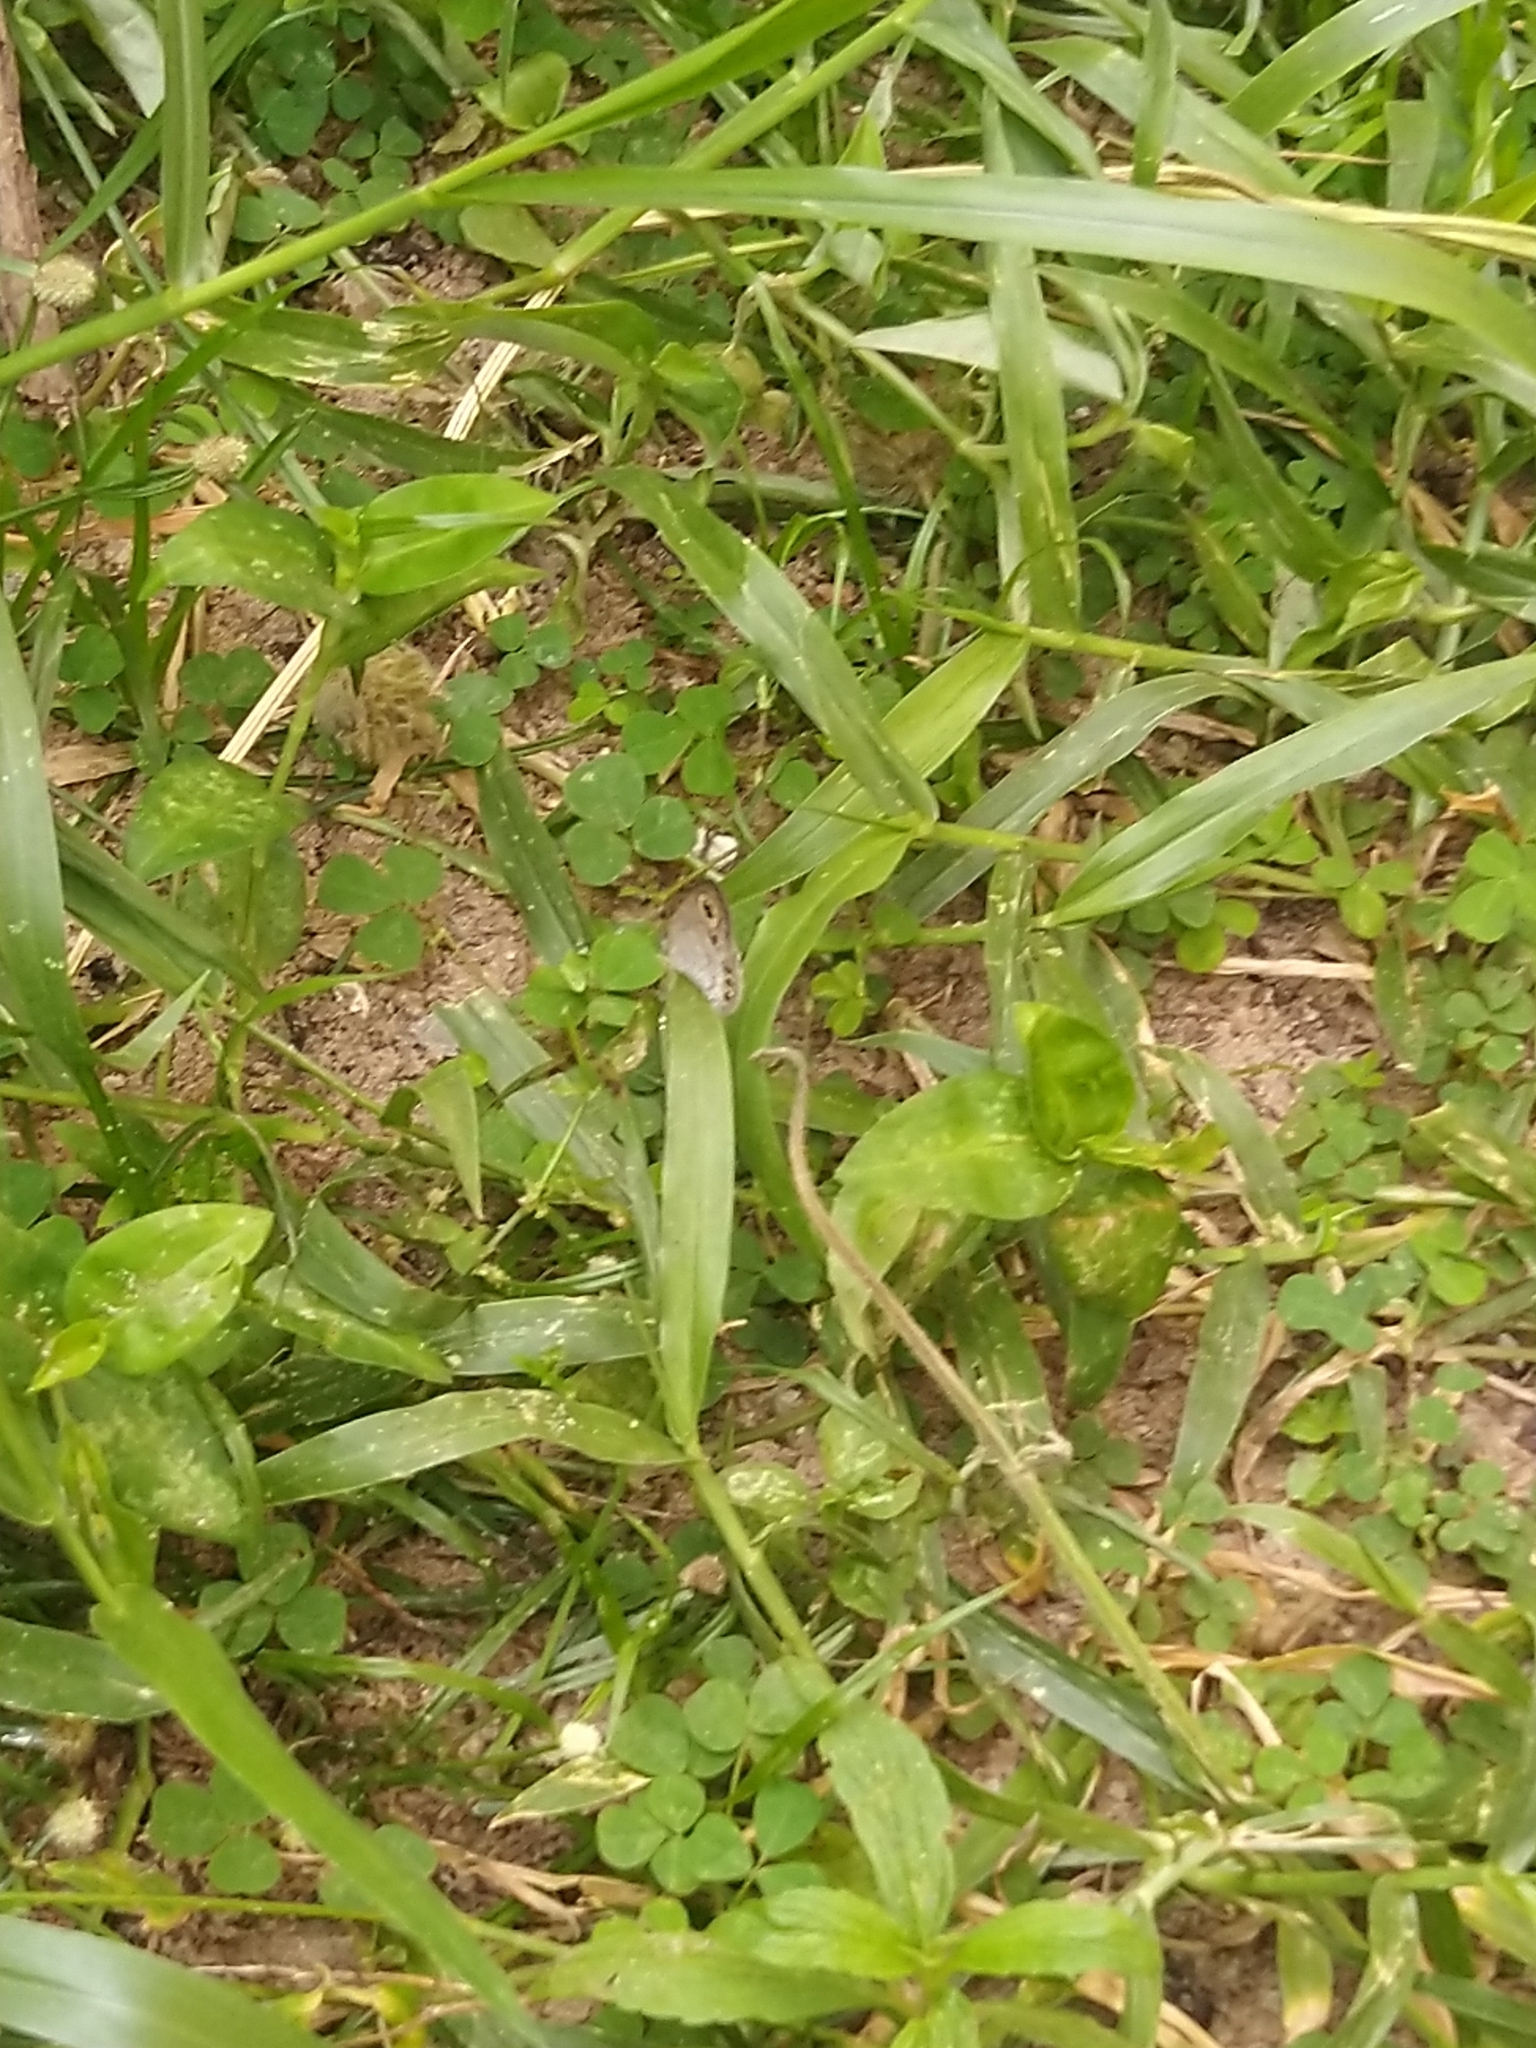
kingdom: Animalia
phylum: Arthropoda
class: Insecta
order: Lepidoptera
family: Nymphalidae
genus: Ypthima
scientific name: Ypthima huebneri
